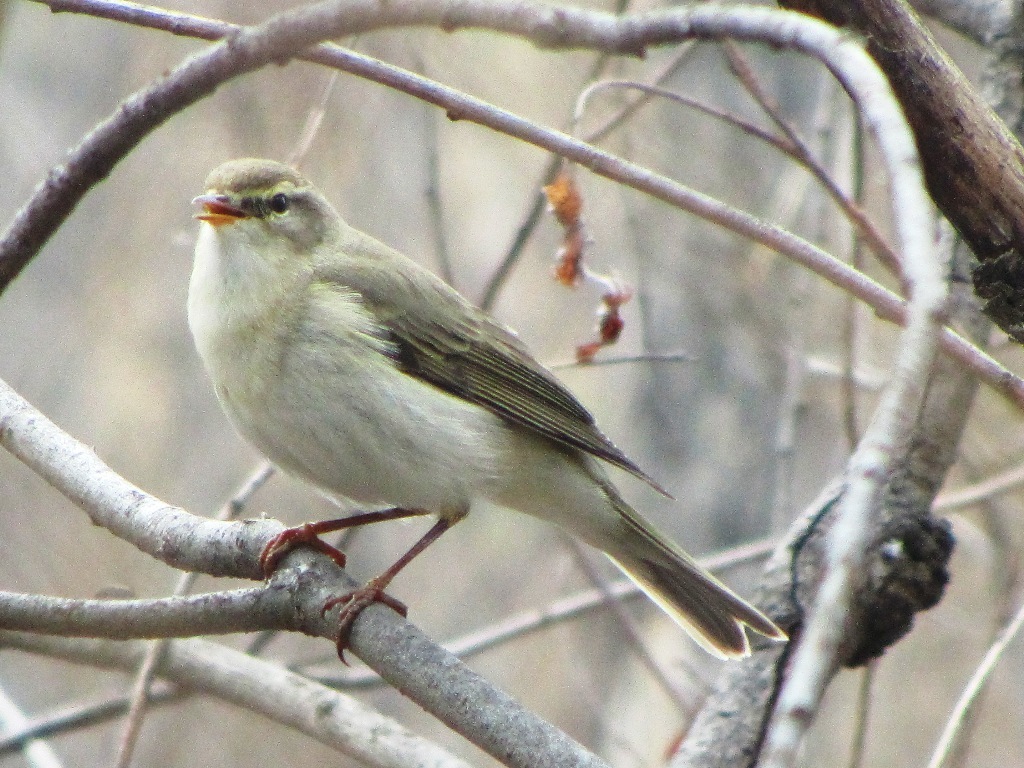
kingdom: Animalia
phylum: Chordata
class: Aves
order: Passeriformes
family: Phylloscopidae
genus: Phylloscopus
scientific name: Phylloscopus trochilus
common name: Willow warbler
